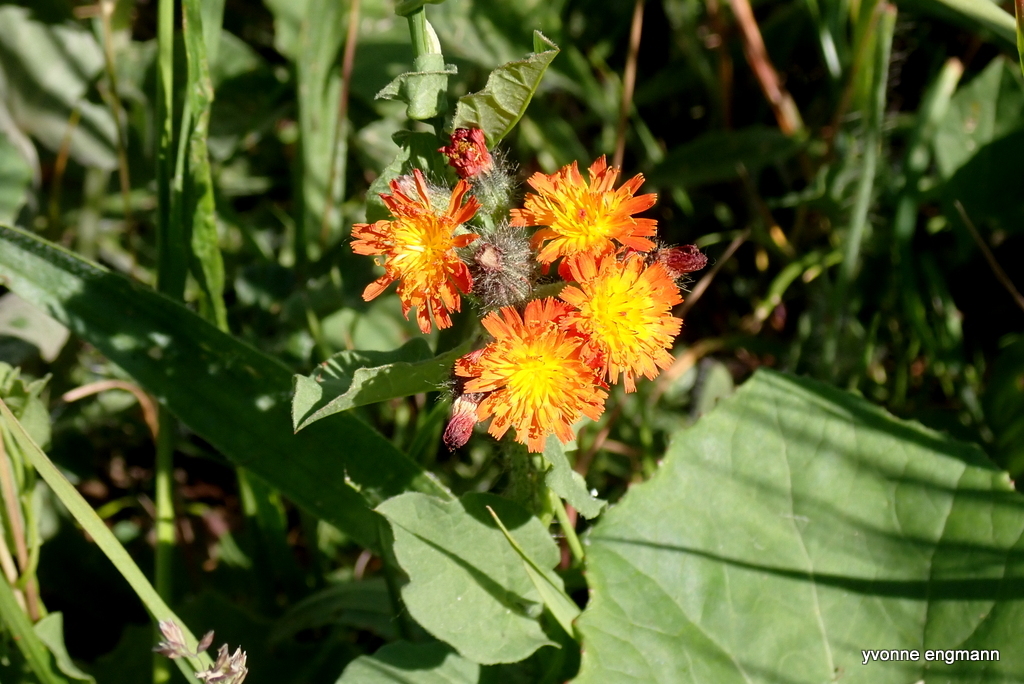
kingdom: Plantae
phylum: Tracheophyta
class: Magnoliopsida
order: Asterales
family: Asteraceae
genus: Pilosella
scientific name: Pilosella aurantiaca
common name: Fox-and-cubs
